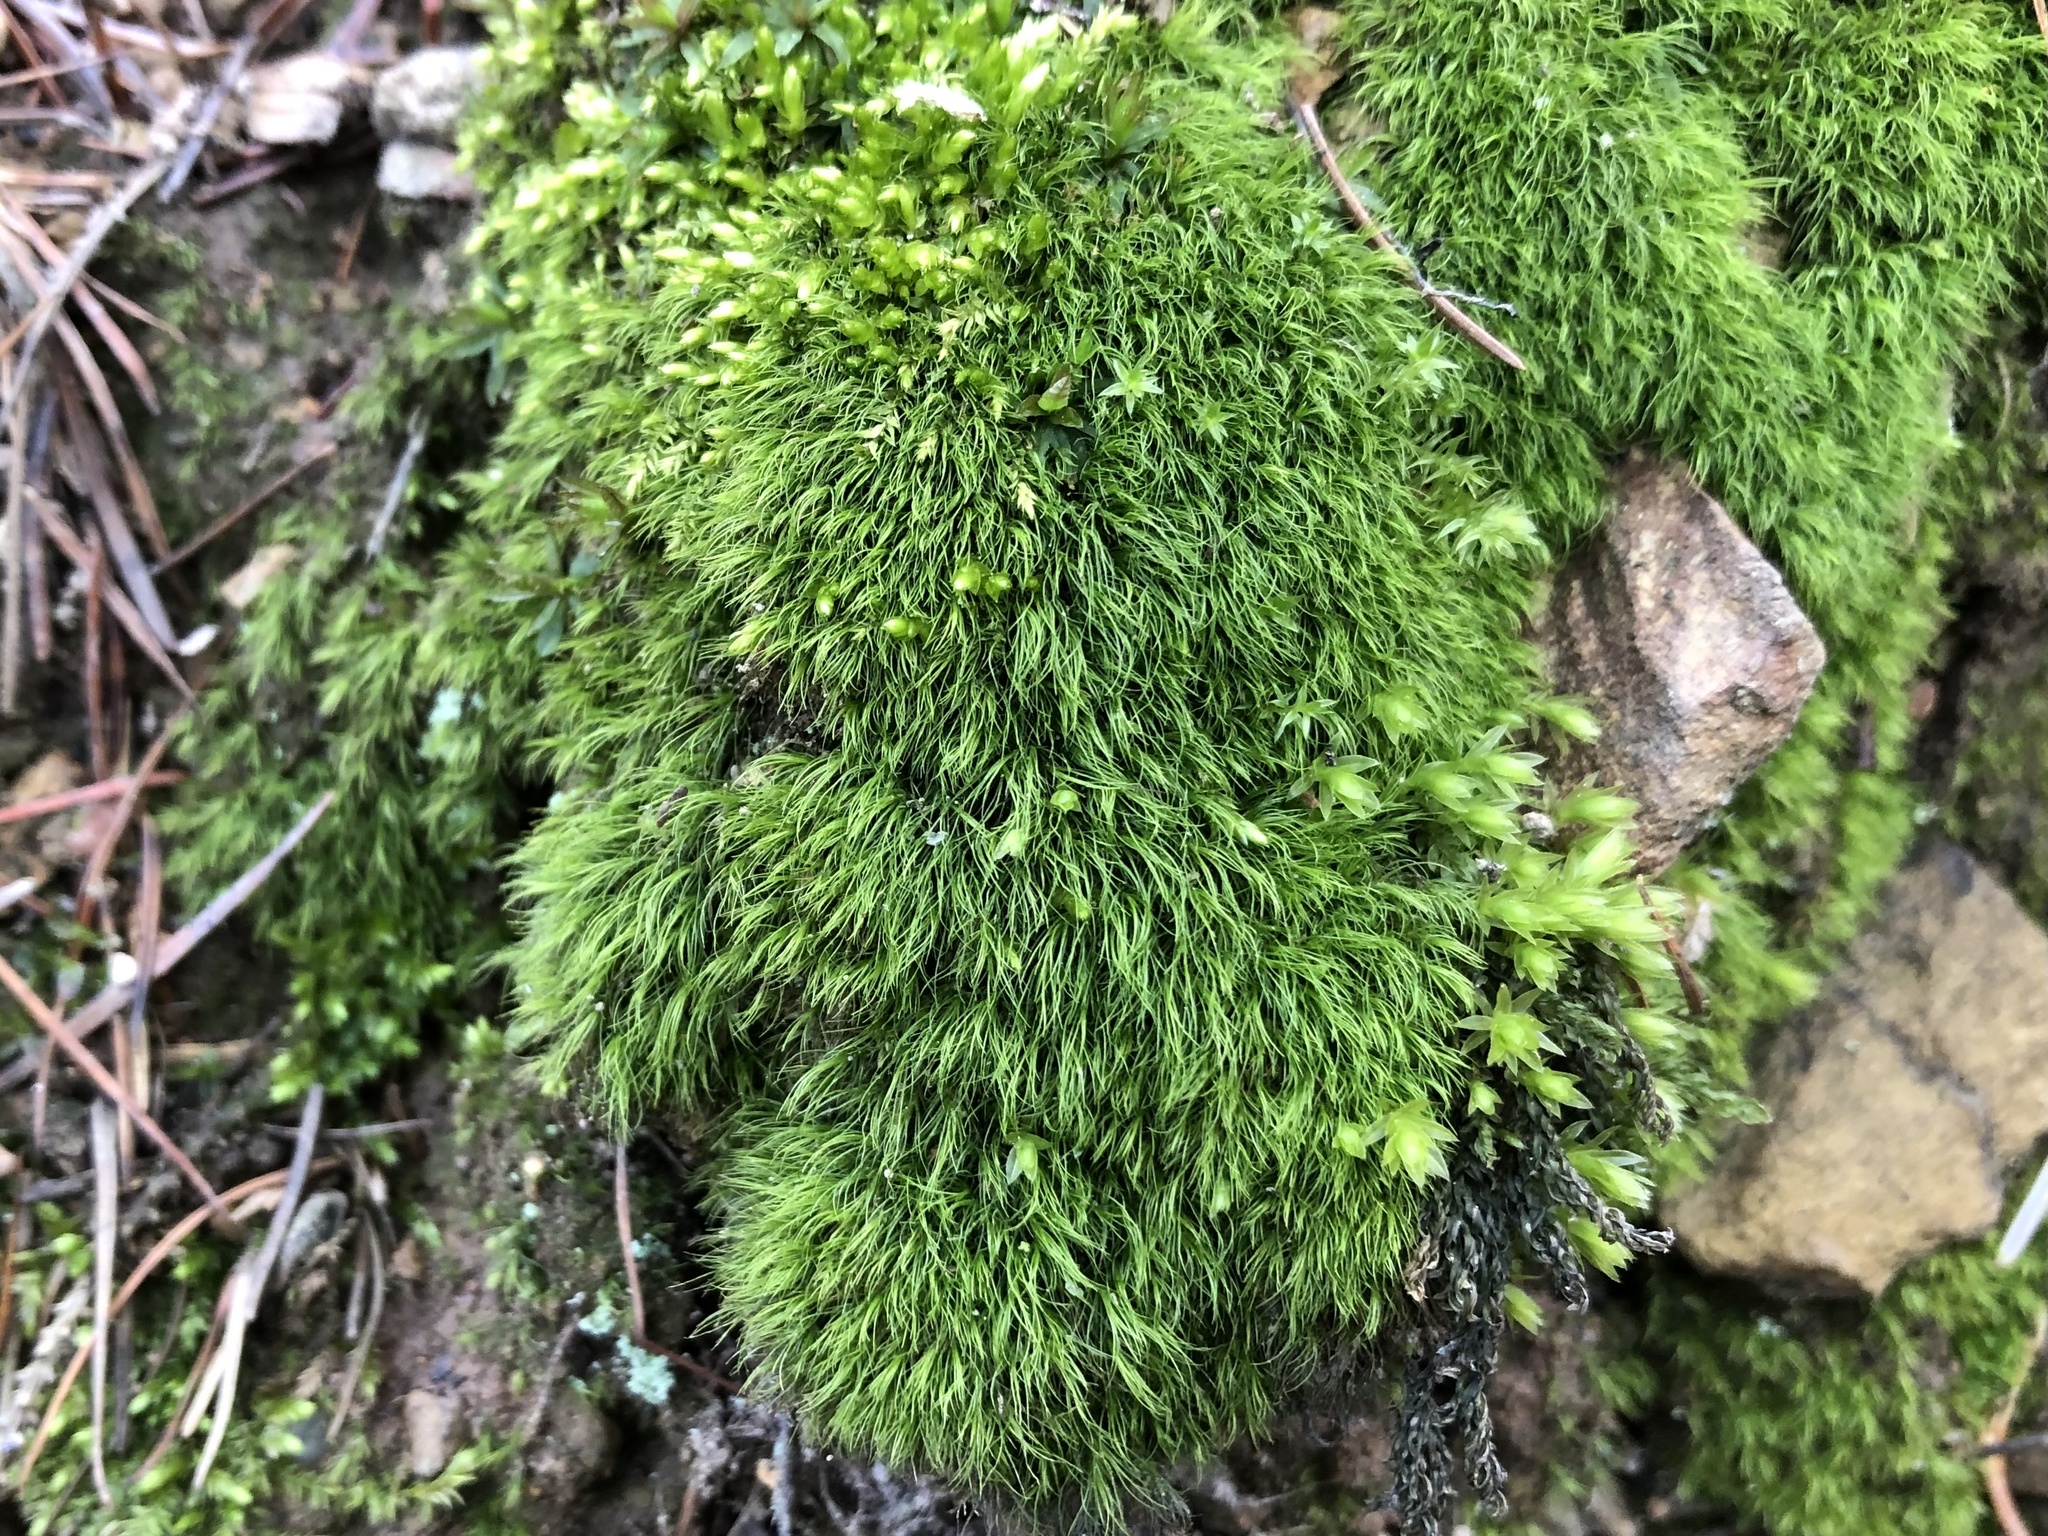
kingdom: Plantae
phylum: Bryophyta
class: Bryopsida
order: Dicranales
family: Dicranellaceae
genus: Dicranella
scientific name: Dicranella heteromalla
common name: Silky forklet moss
